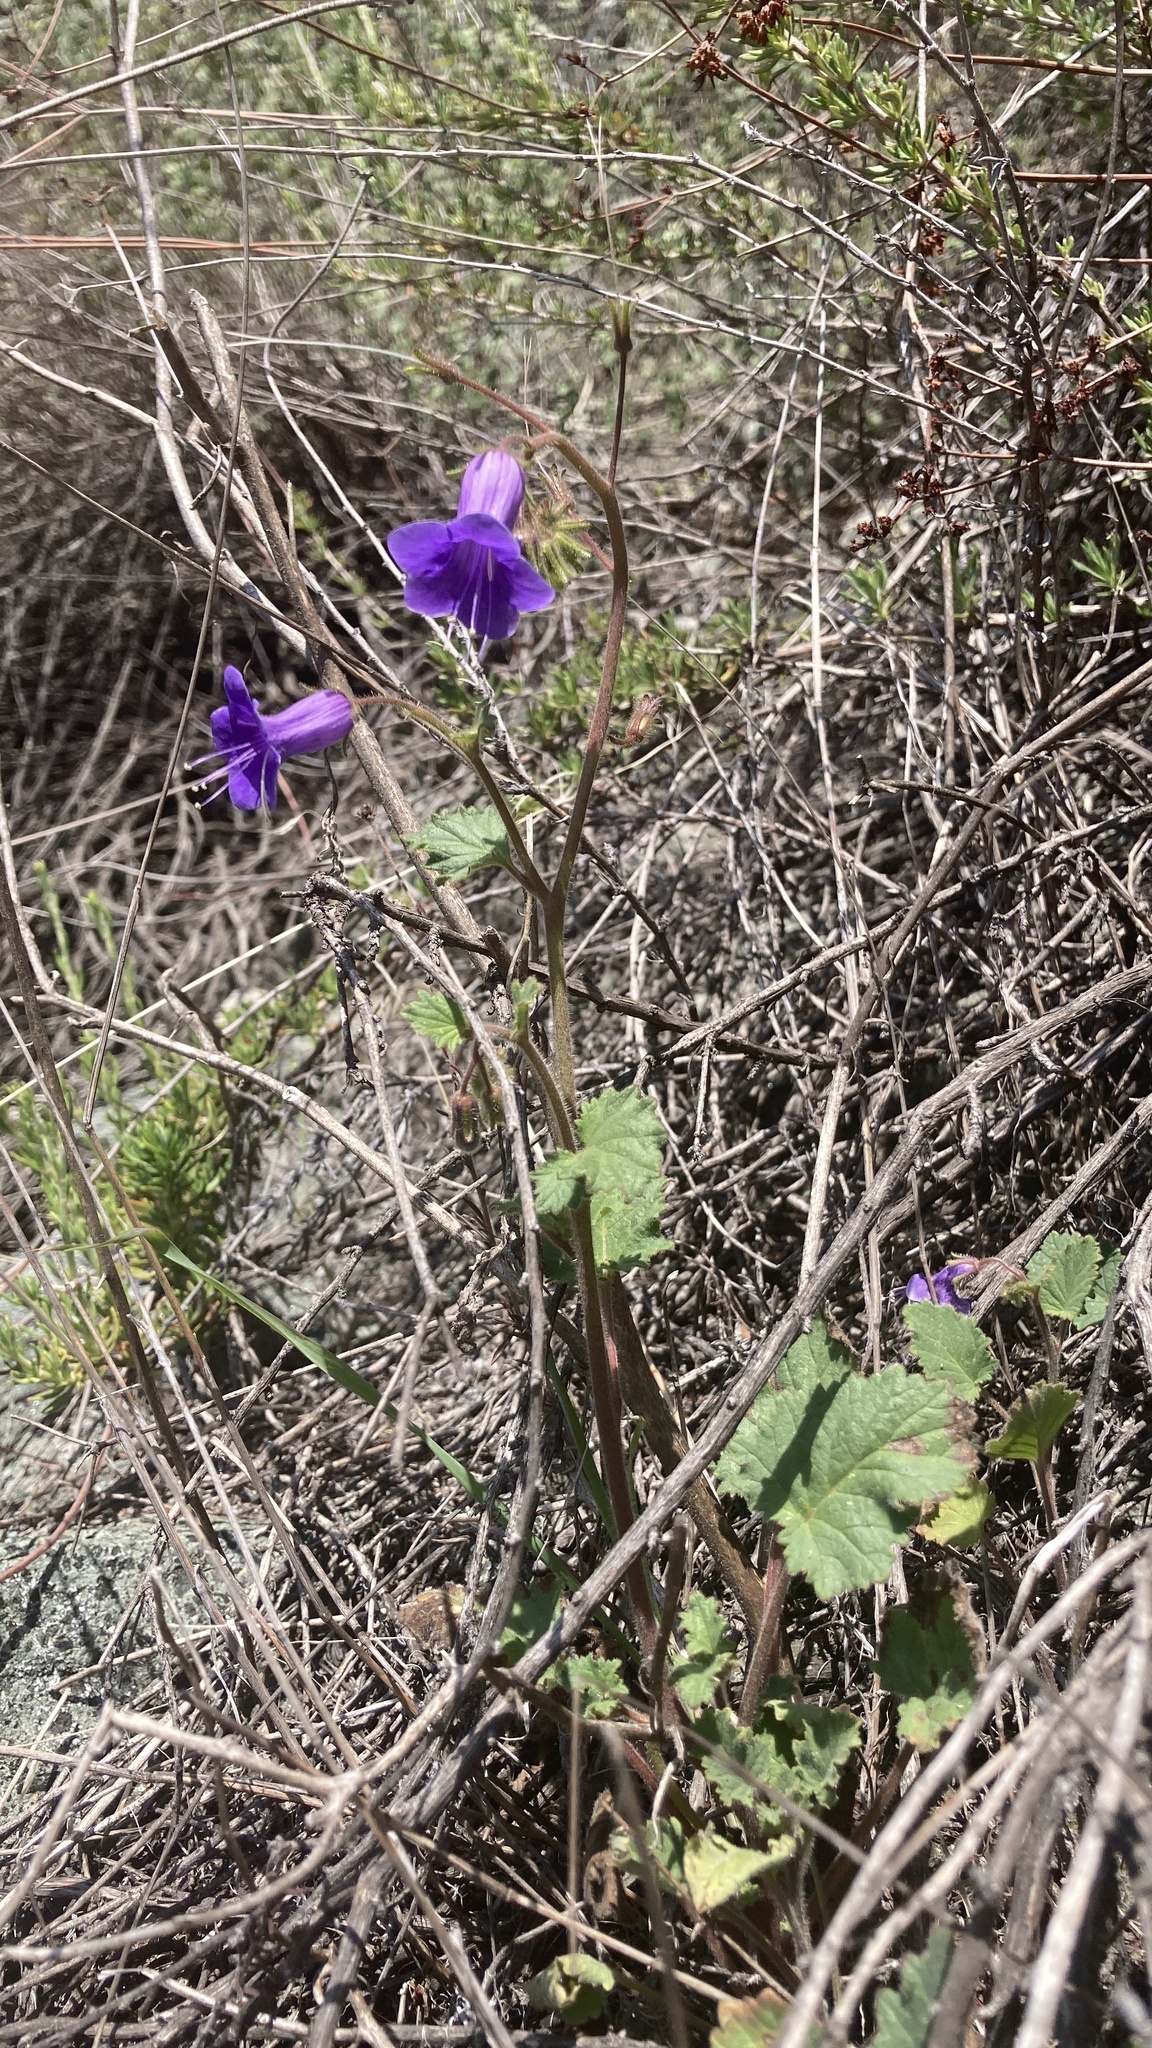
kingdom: Plantae
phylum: Tracheophyta
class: Magnoliopsida
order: Boraginales
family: Hydrophyllaceae
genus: Phacelia
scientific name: Phacelia minor
